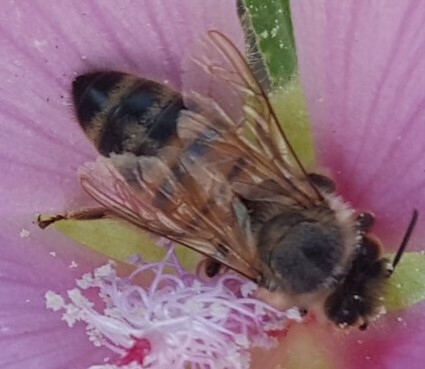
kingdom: Animalia
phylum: Arthropoda
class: Insecta
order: Hymenoptera
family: Apidae
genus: Apis
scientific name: Apis mellifera
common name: Honey bee
